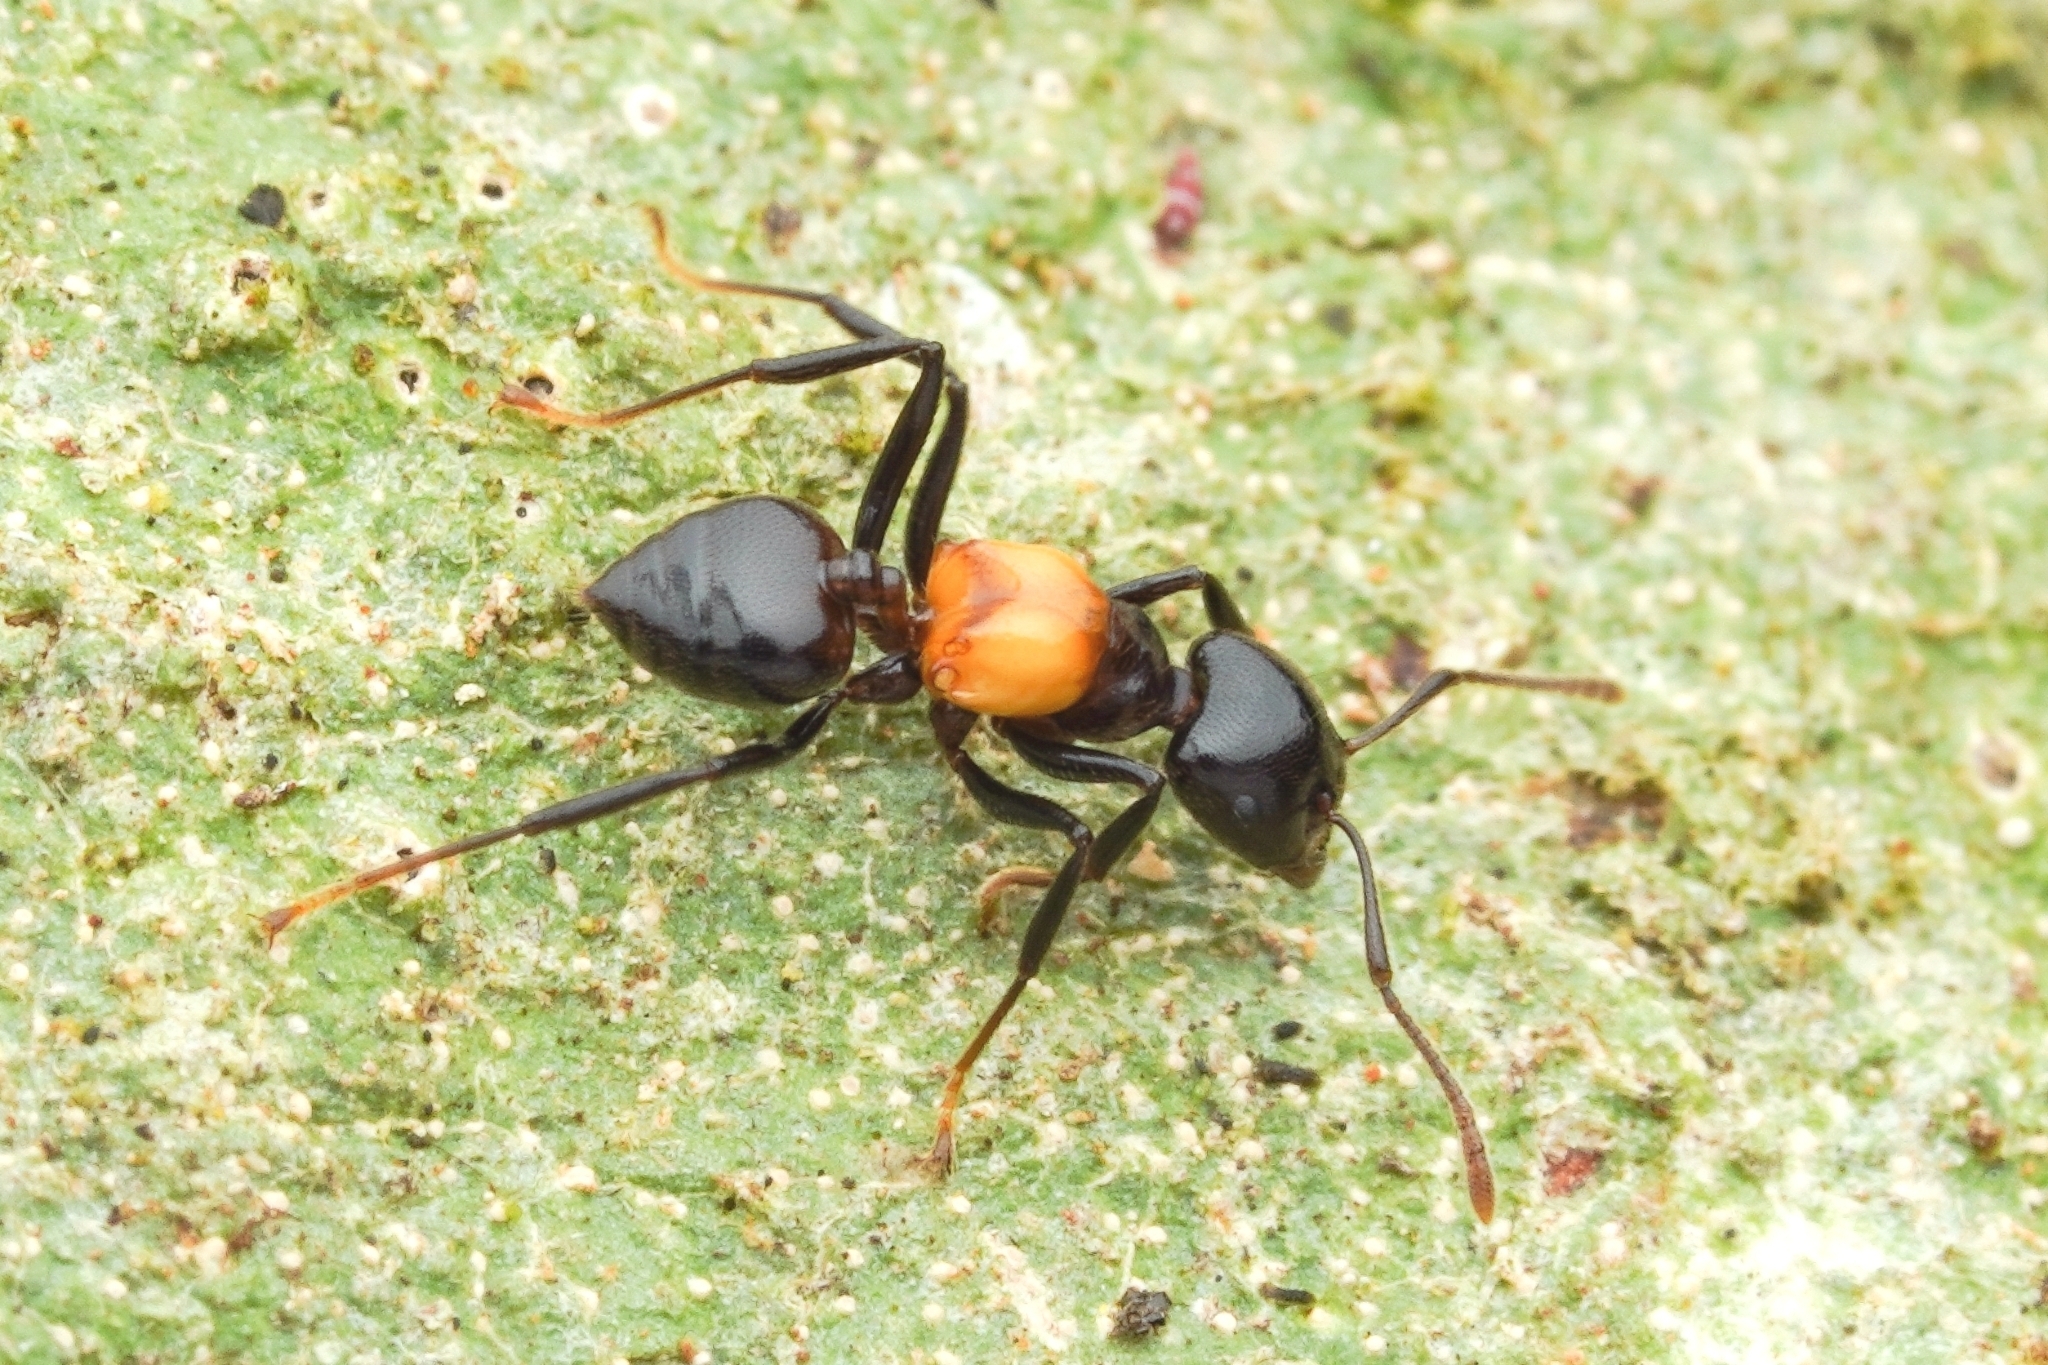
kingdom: Animalia
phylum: Arthropoda
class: Insecta
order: Hymenoptera
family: Formicidae
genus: Crematogaster
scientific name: Crematogaster inflata
